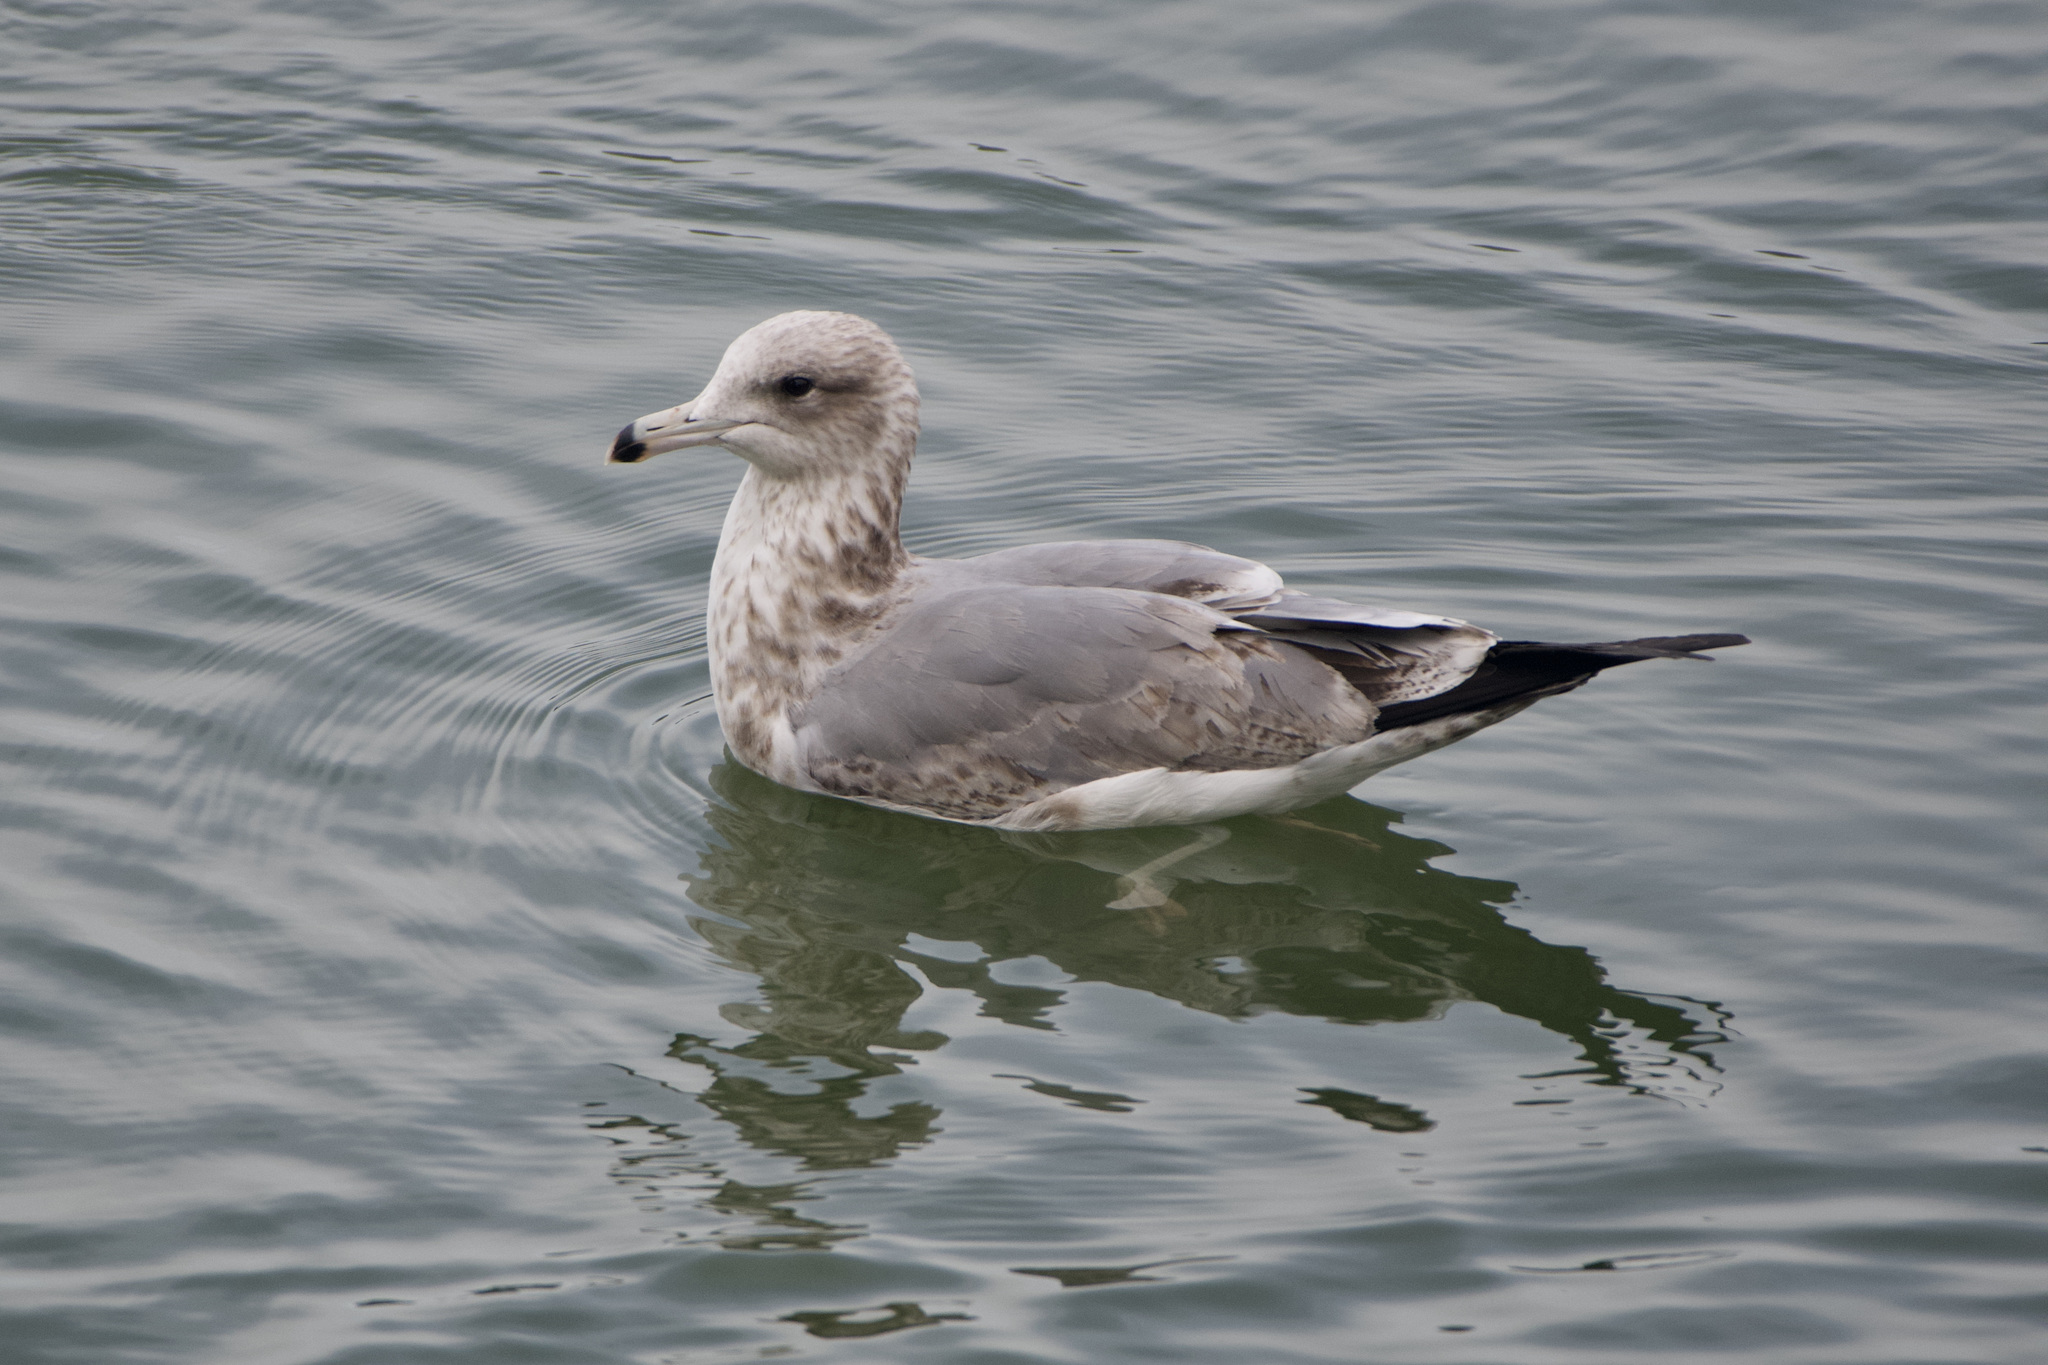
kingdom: Animalia
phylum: Chordata
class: Aves
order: Charadriiformes
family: Laridae
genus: Larus
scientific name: Larus californicus
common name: California gull
